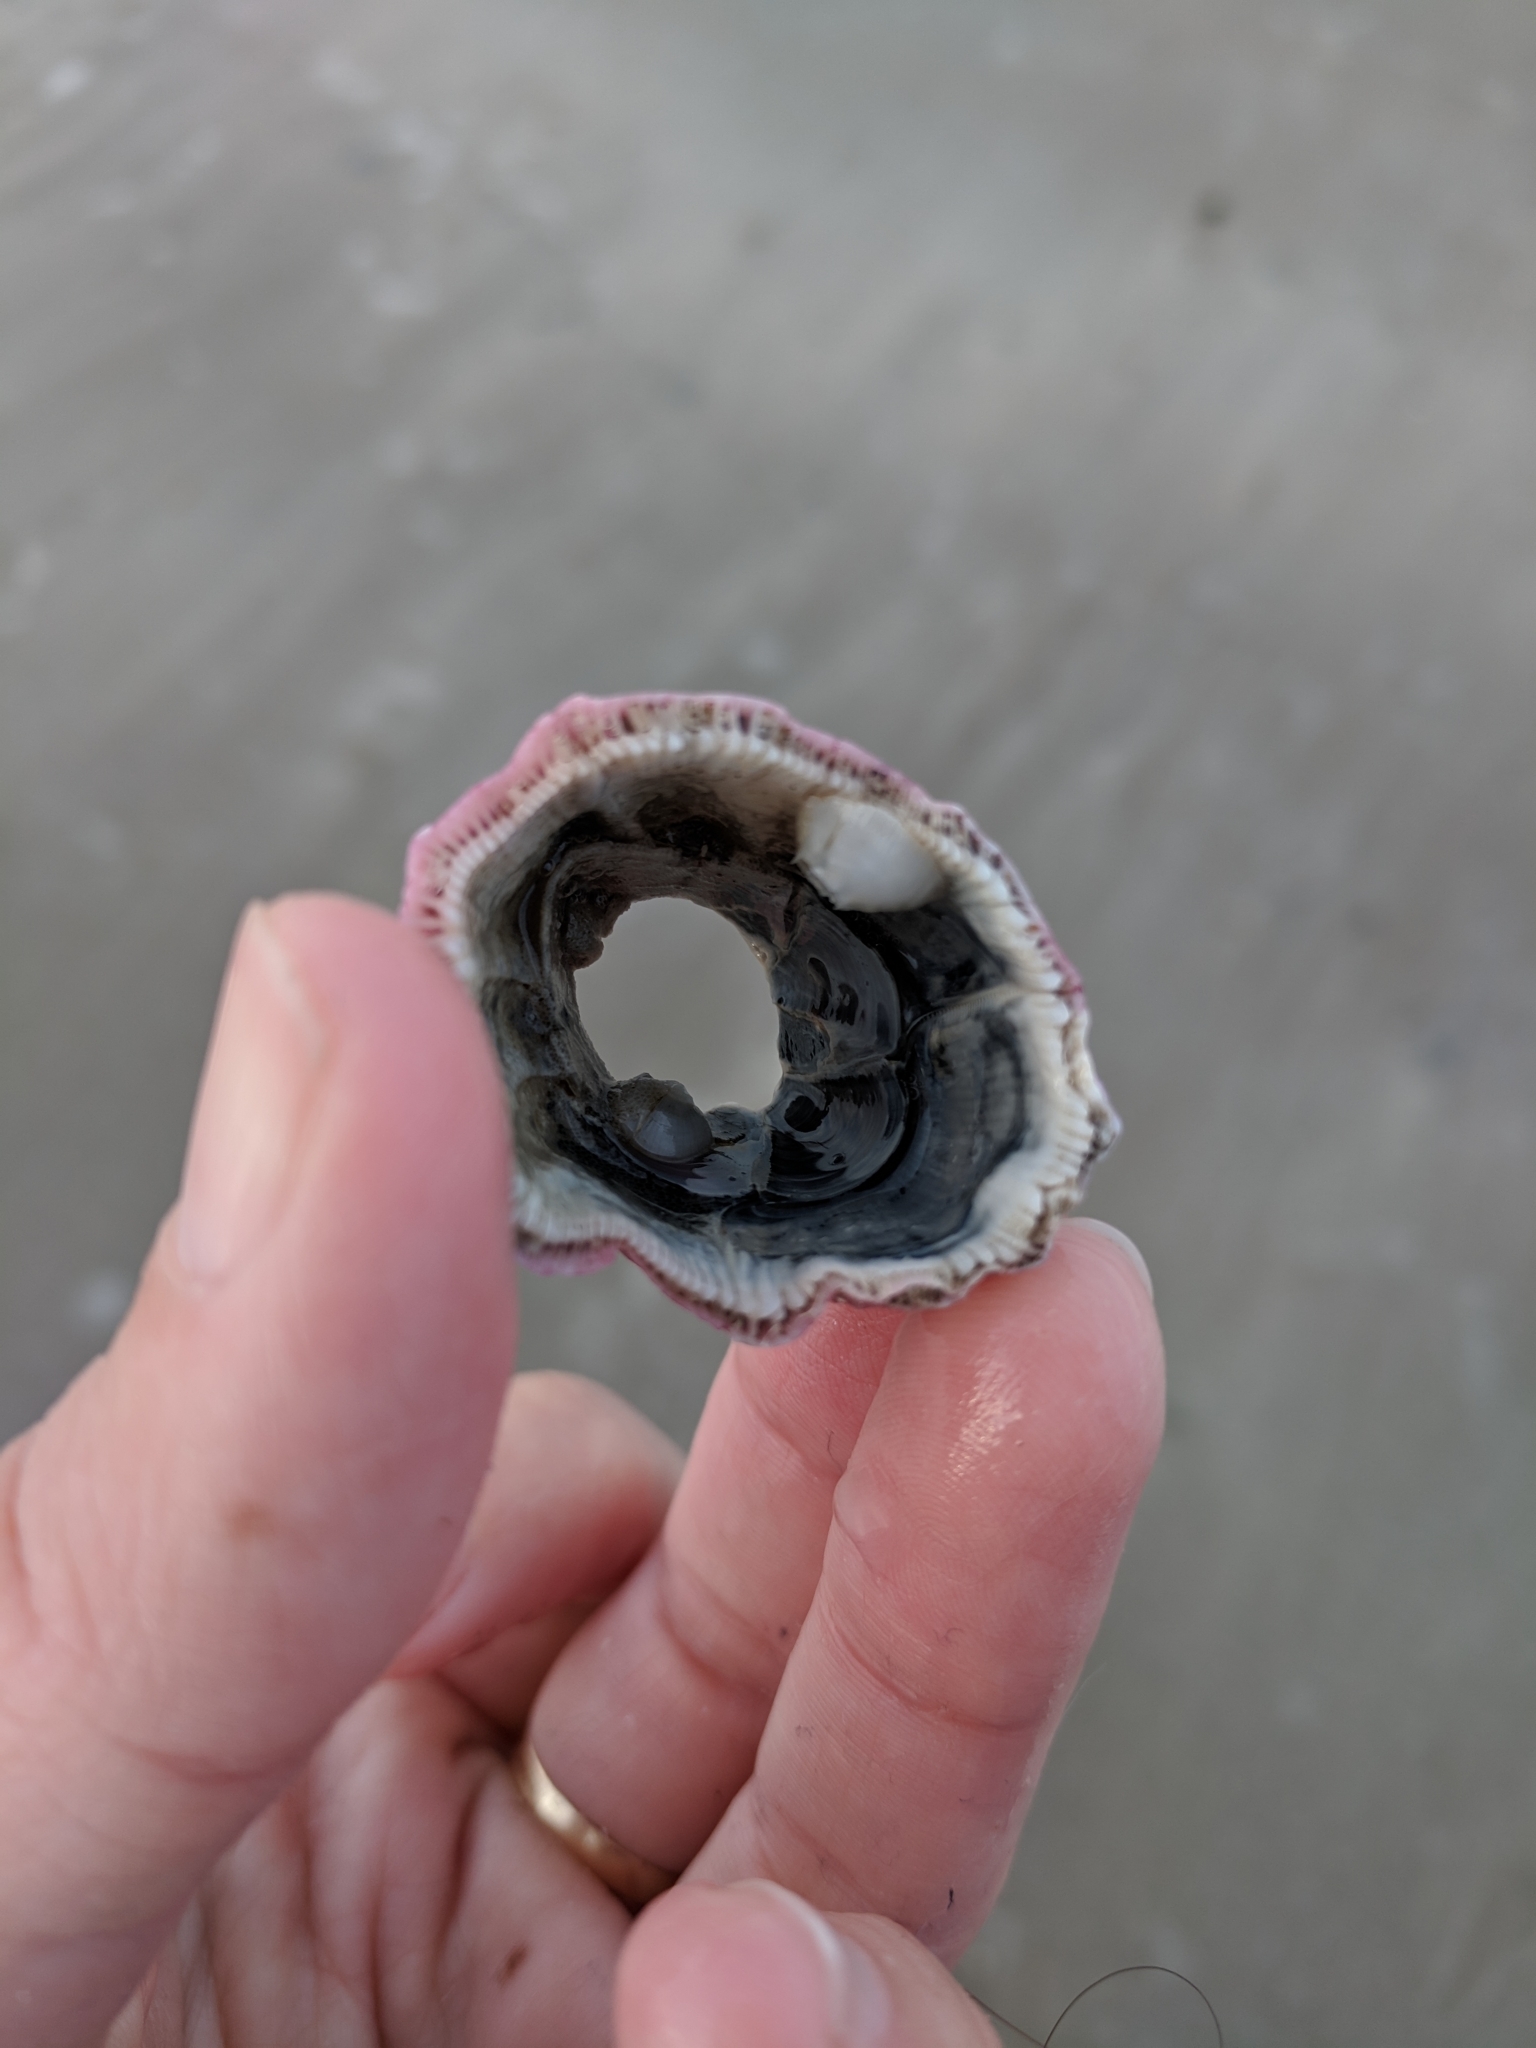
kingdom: Animalia
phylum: Arthropoda
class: Maxillopoda
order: Sessilia
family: Balanidae
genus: Megabalanus
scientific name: Megabalanus tintinnabulum
